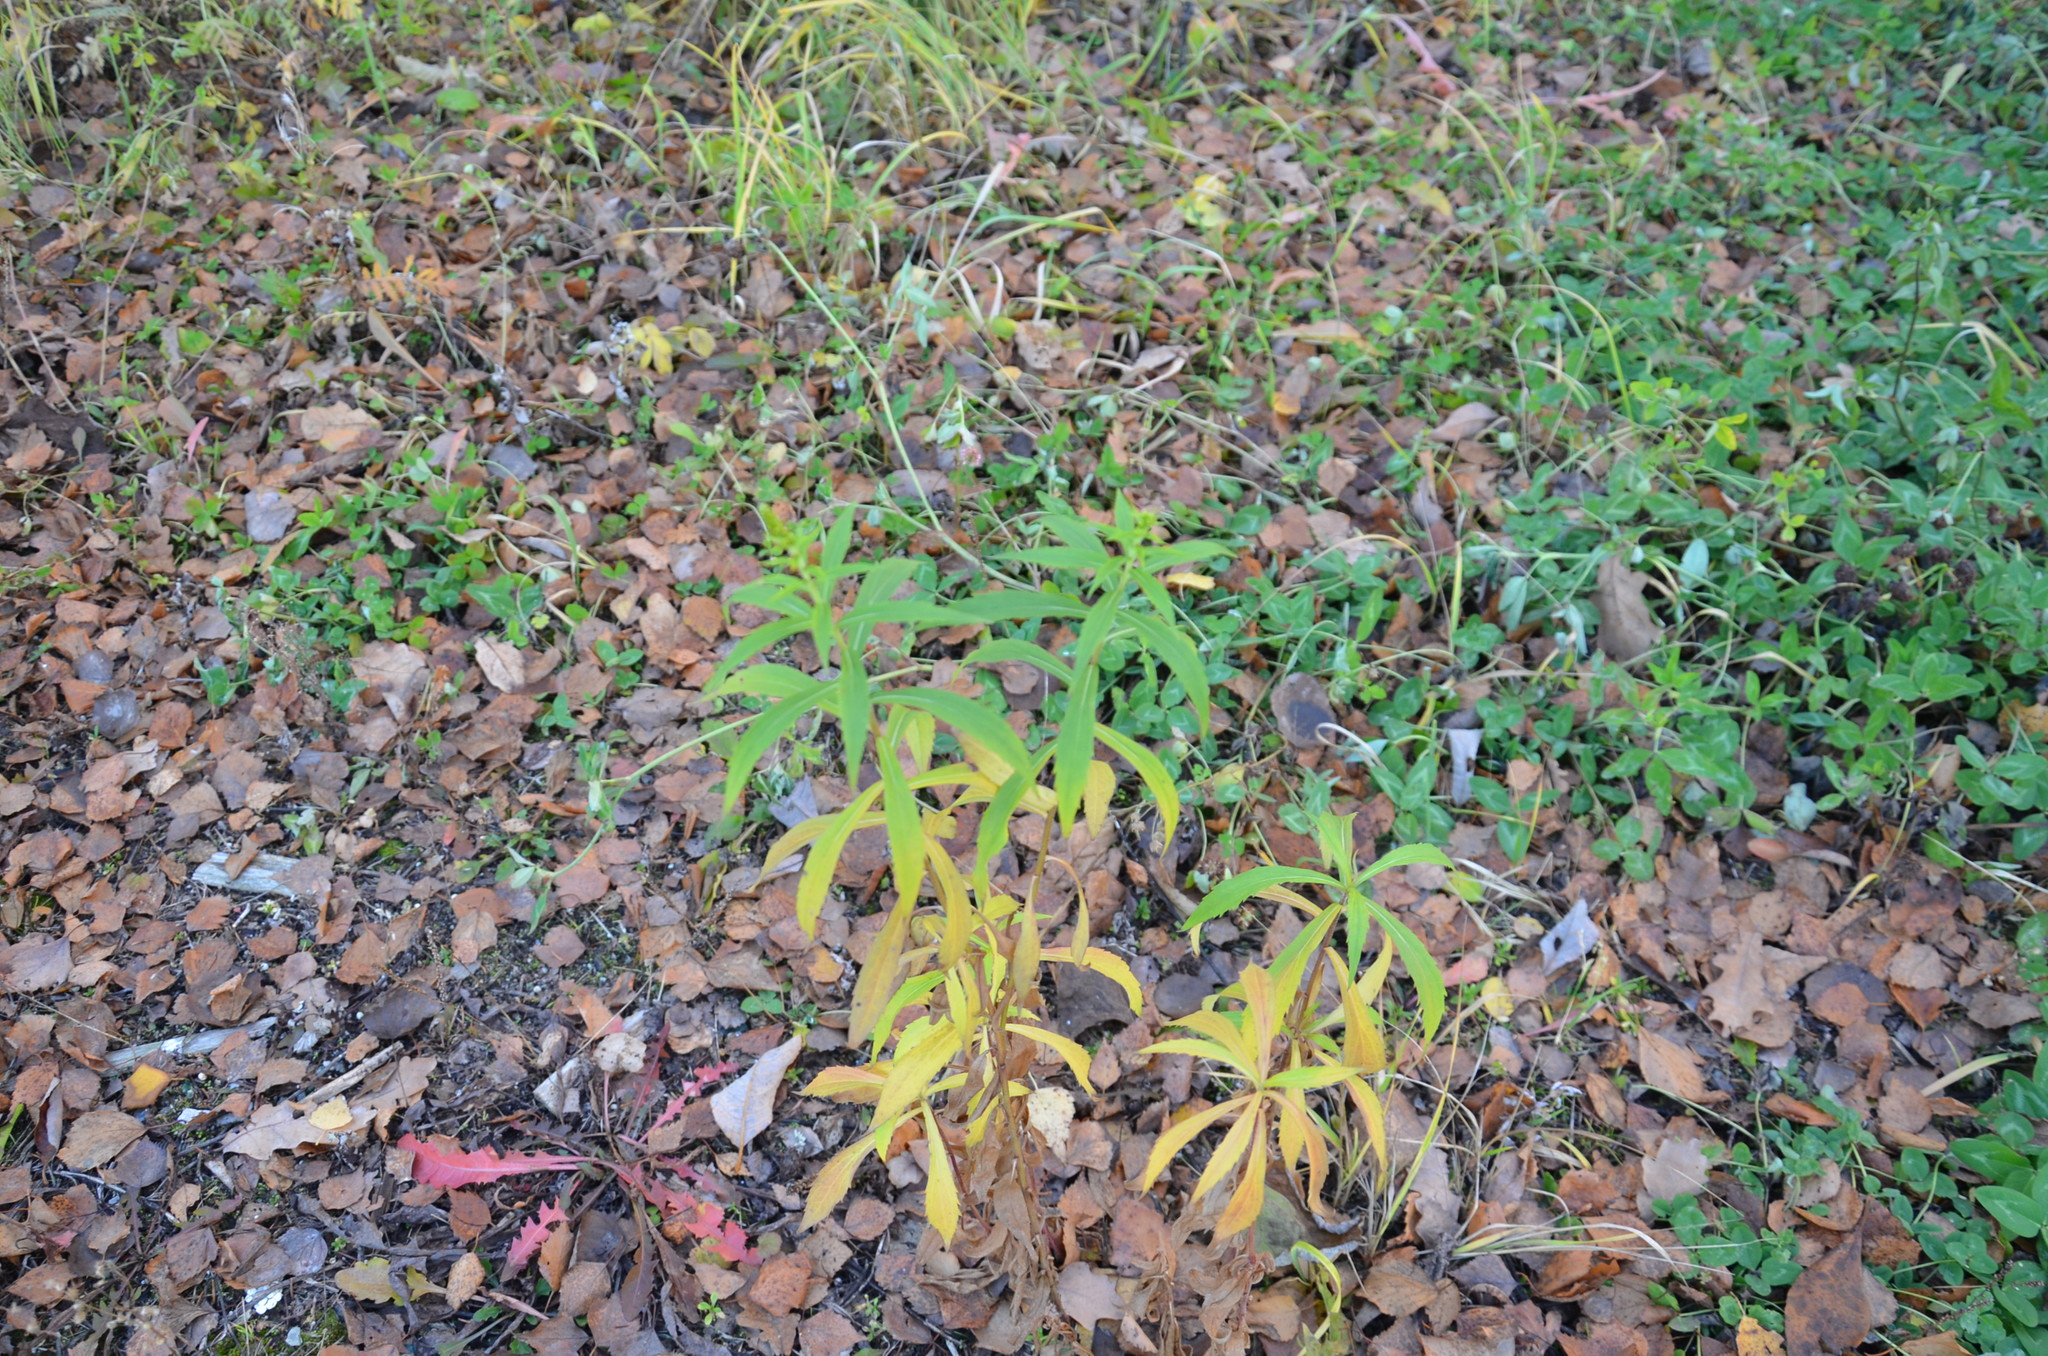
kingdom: Plantae
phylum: Tracheophyta
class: Magnoliopsida
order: Asterales
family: Asteraceae
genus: Solidago
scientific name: Solidago canadensis
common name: Canada goldenrod
